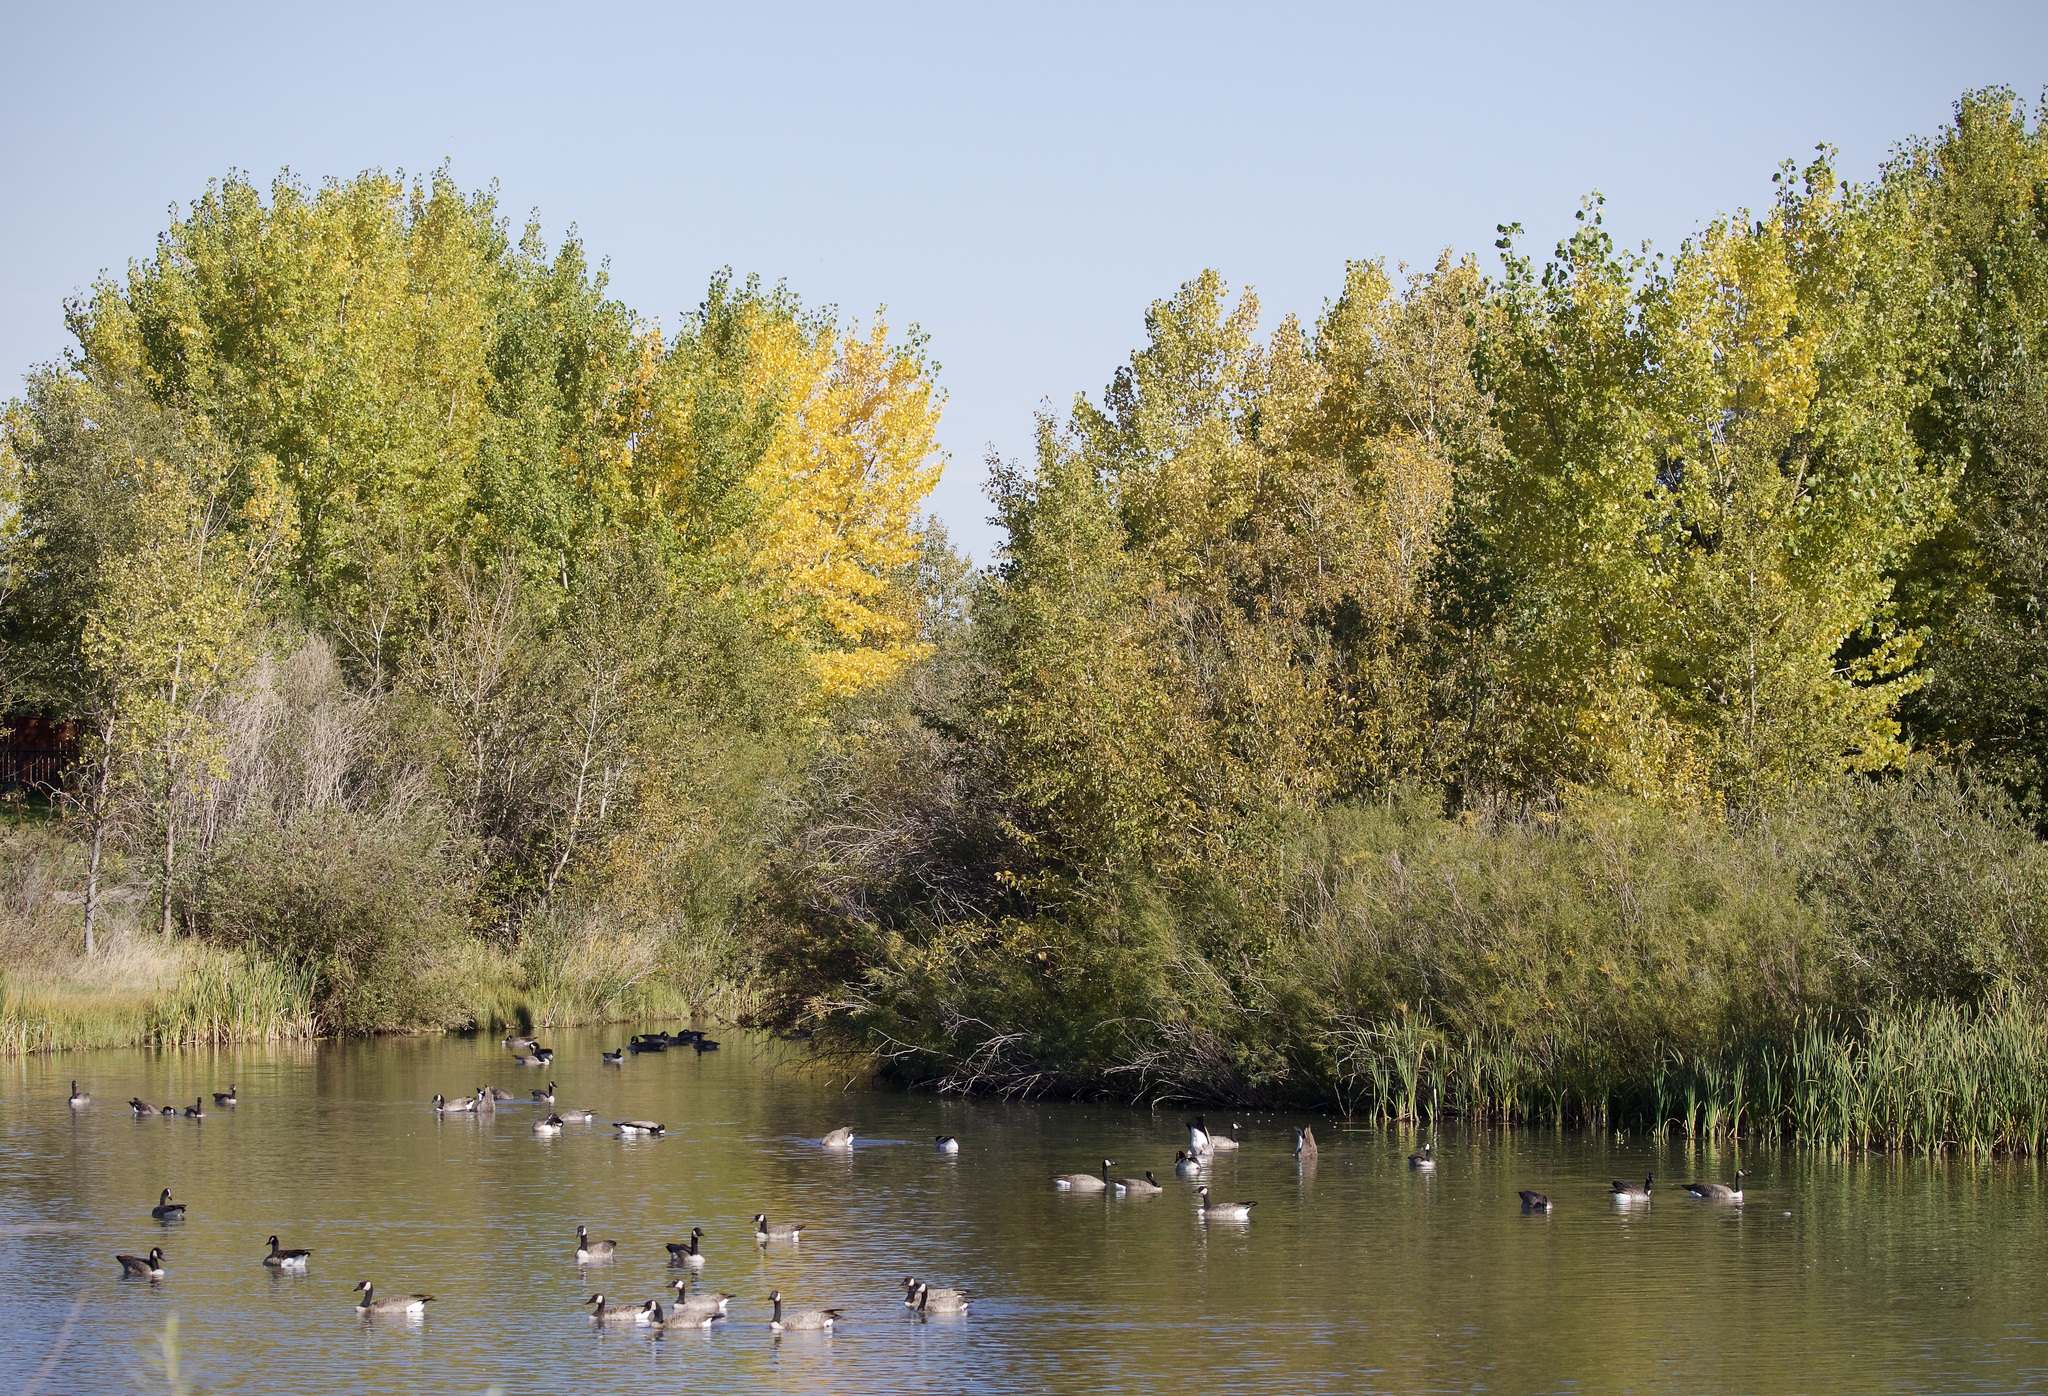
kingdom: Animalia
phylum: Chordata
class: Aves
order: Anseriformes
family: Anatidae
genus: Branta
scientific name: Branta canadensis
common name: Canada goose
